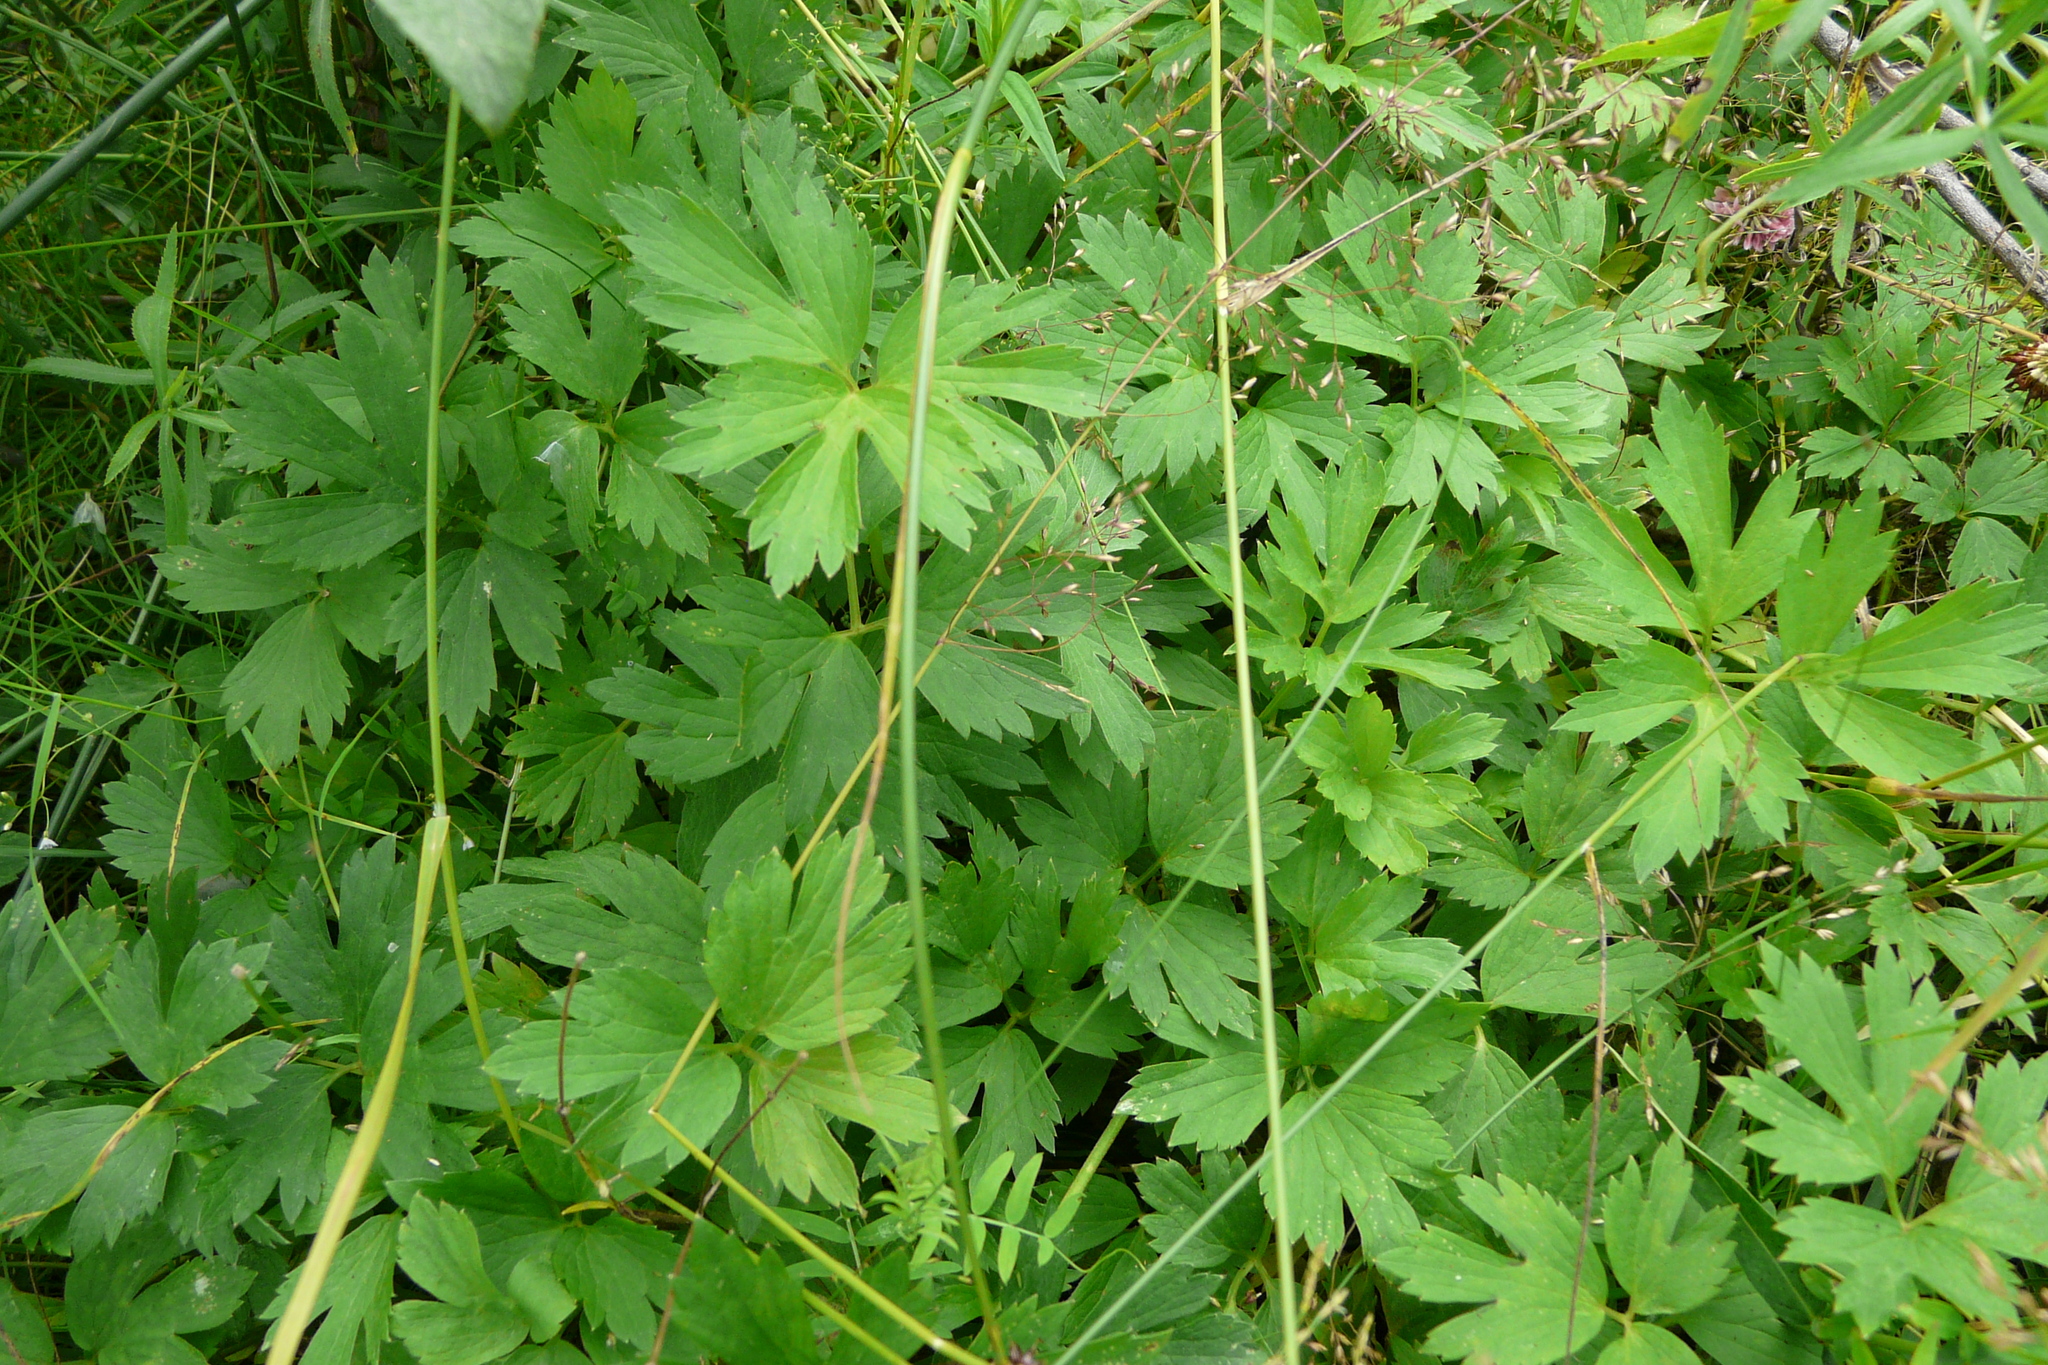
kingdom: Plantae
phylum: Tracheophyta
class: Magnoliopsida
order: Ranunculales
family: Ranunculaceae
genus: Ranunculus
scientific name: Ranunculus repens
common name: Creeping buttercup
